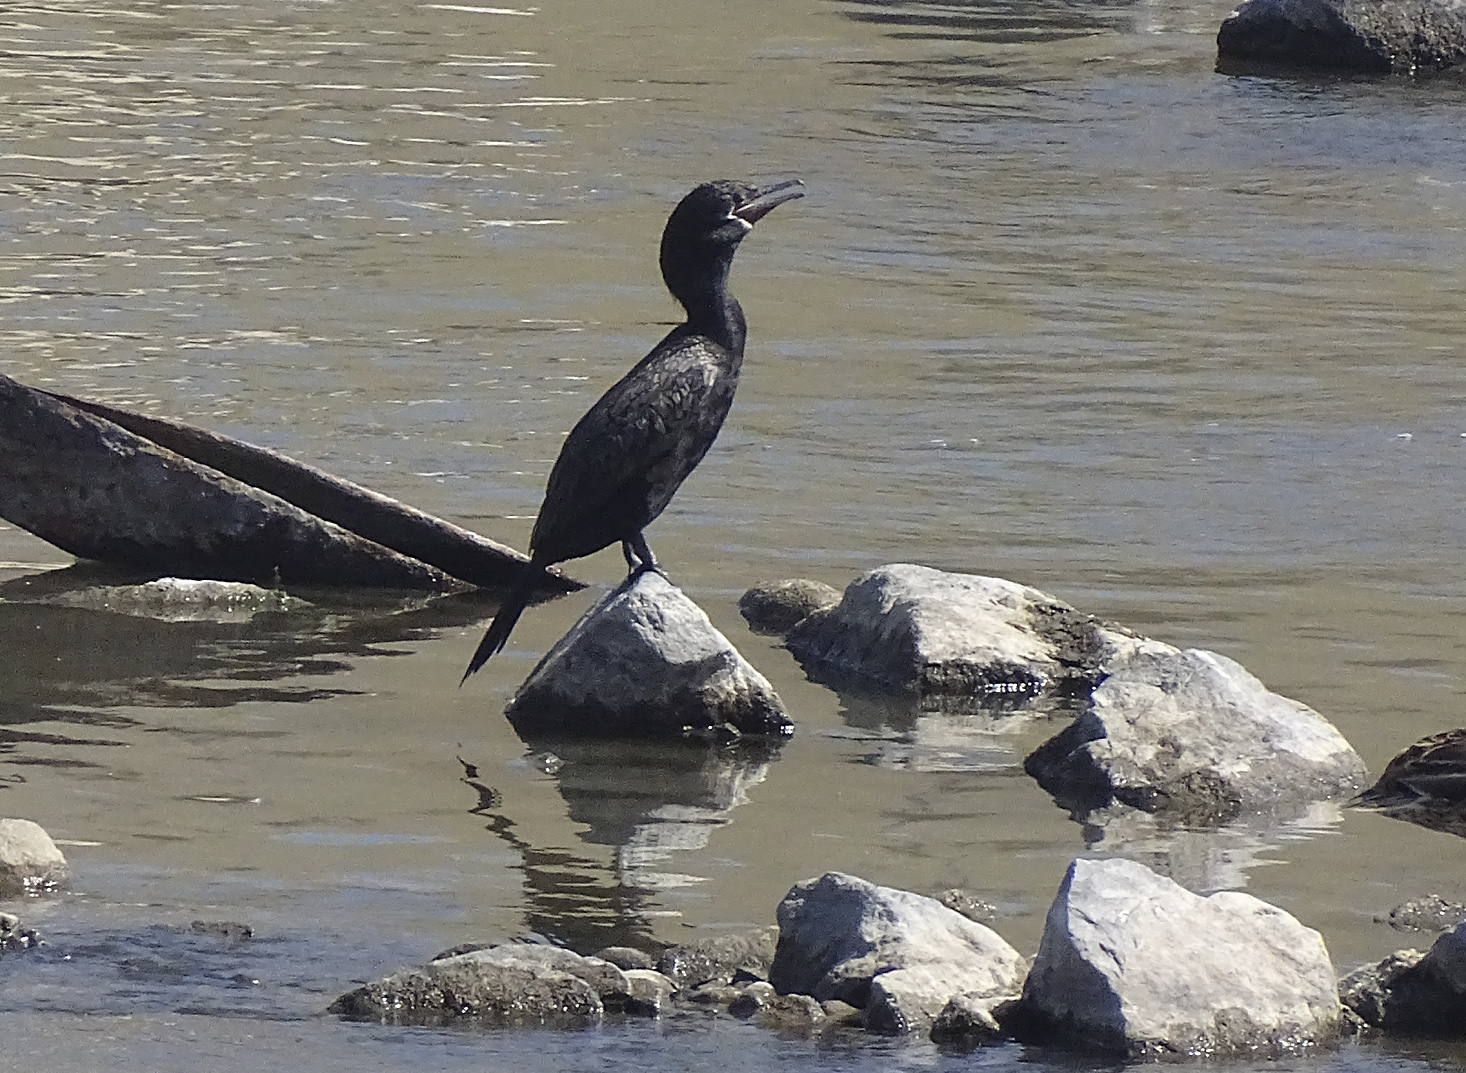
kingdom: Animalia
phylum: Chordata
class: Aves
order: Suliformes
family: Phalacrocoracidae
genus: Phalacrocorax
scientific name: Phalacrocorax brasilianus
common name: Neotropic cormorant
